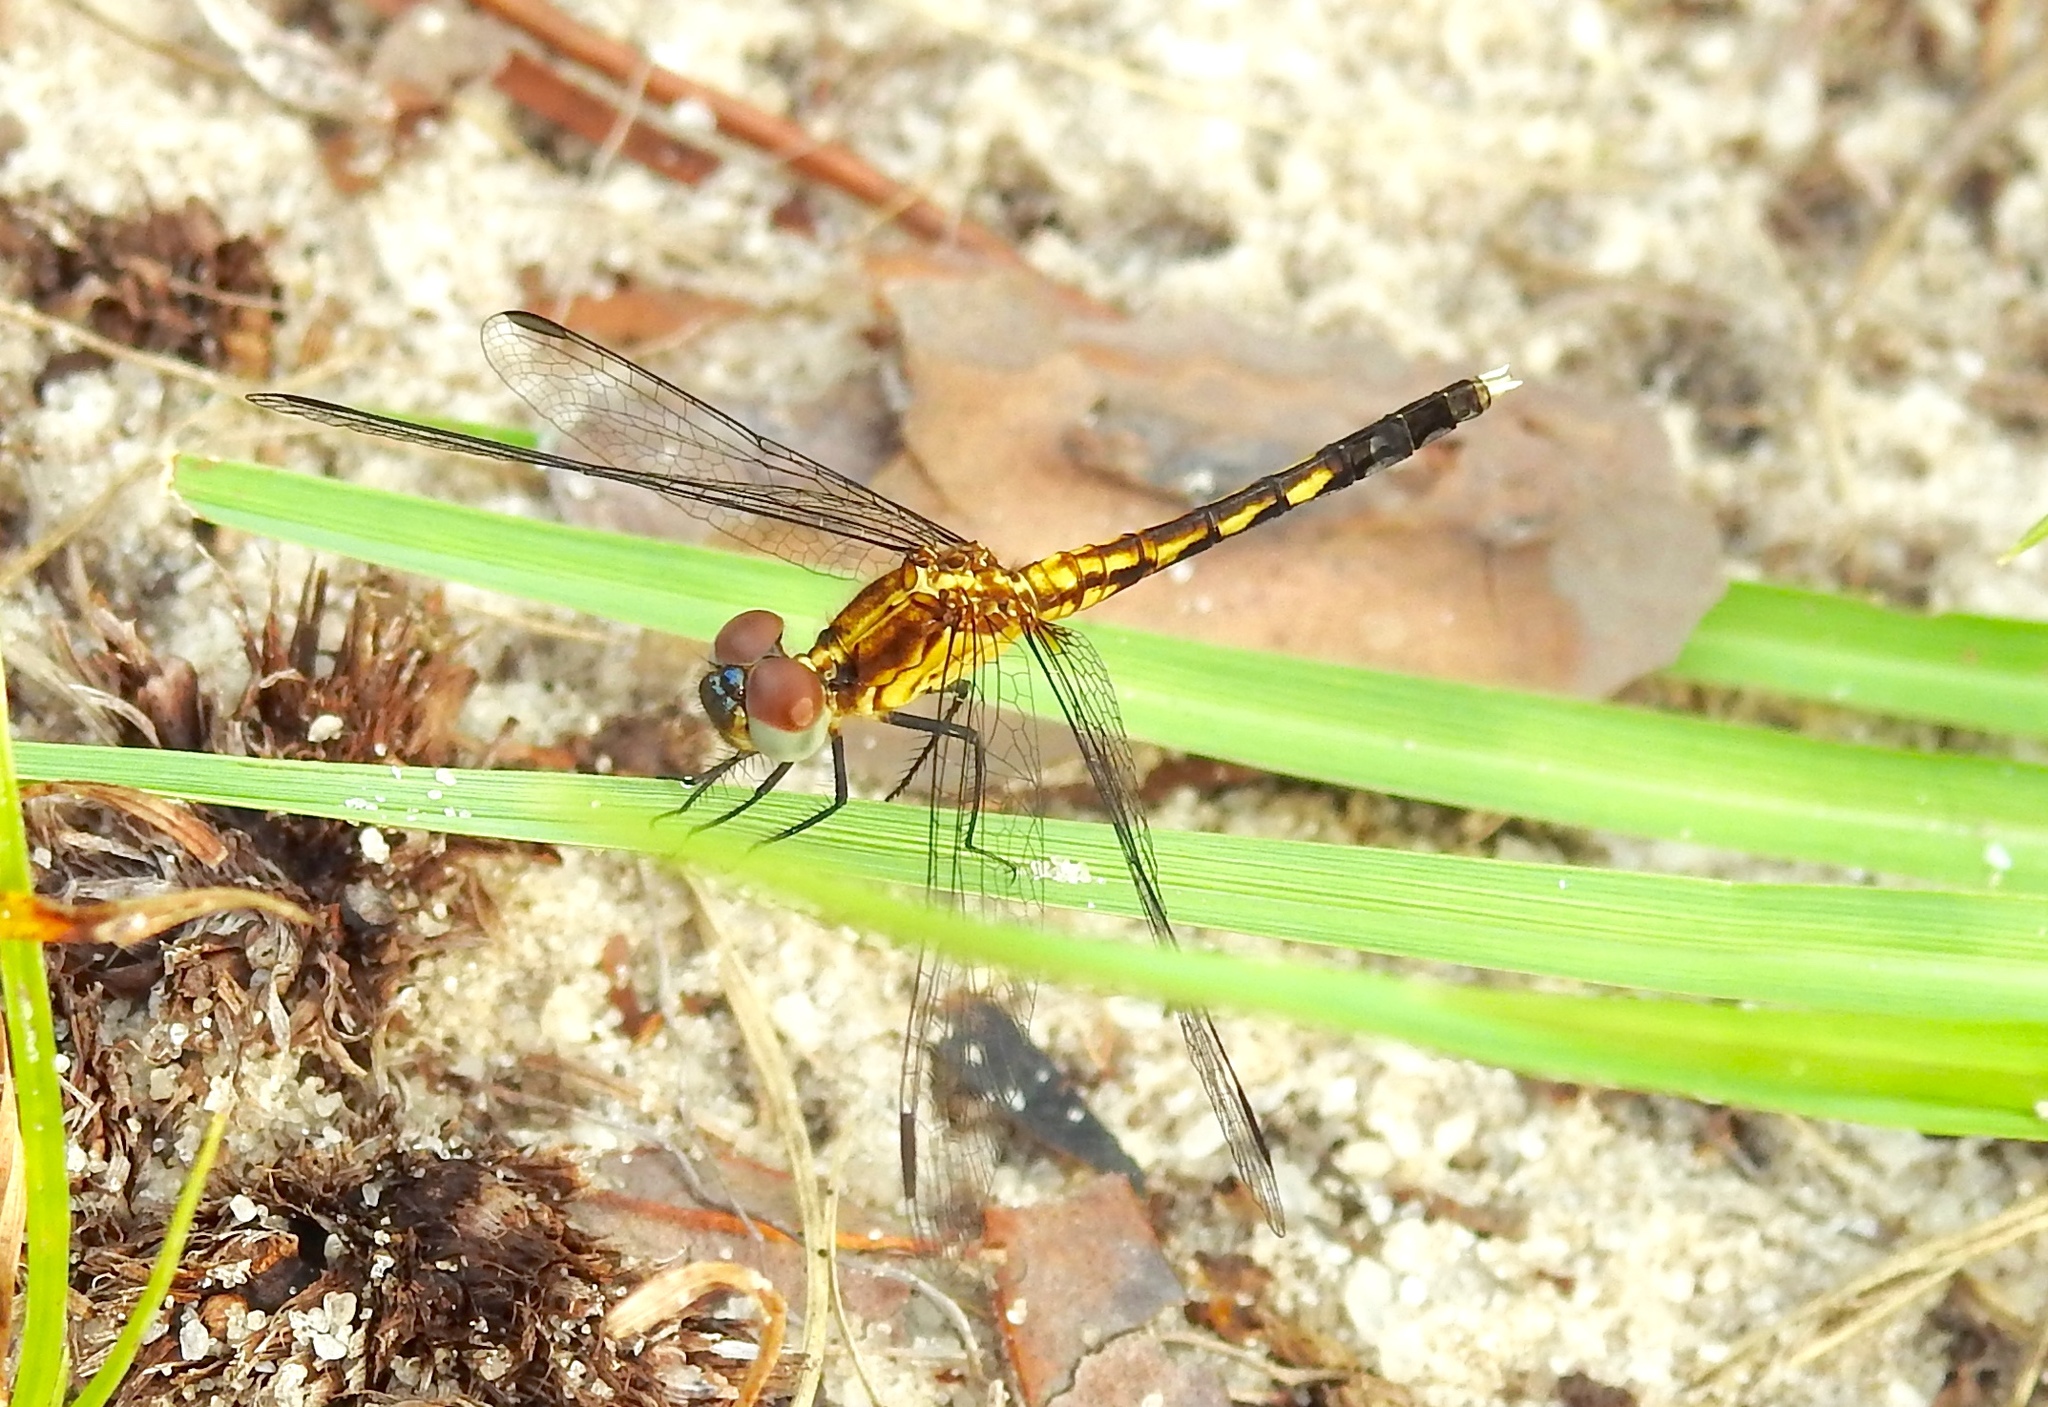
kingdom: Animalia
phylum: Arthropoda
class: Insecta
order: Odonata
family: Libellulidae
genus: Erythrodiplax
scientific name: Erythrodiplax minuscula
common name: Little blue dragonlet
